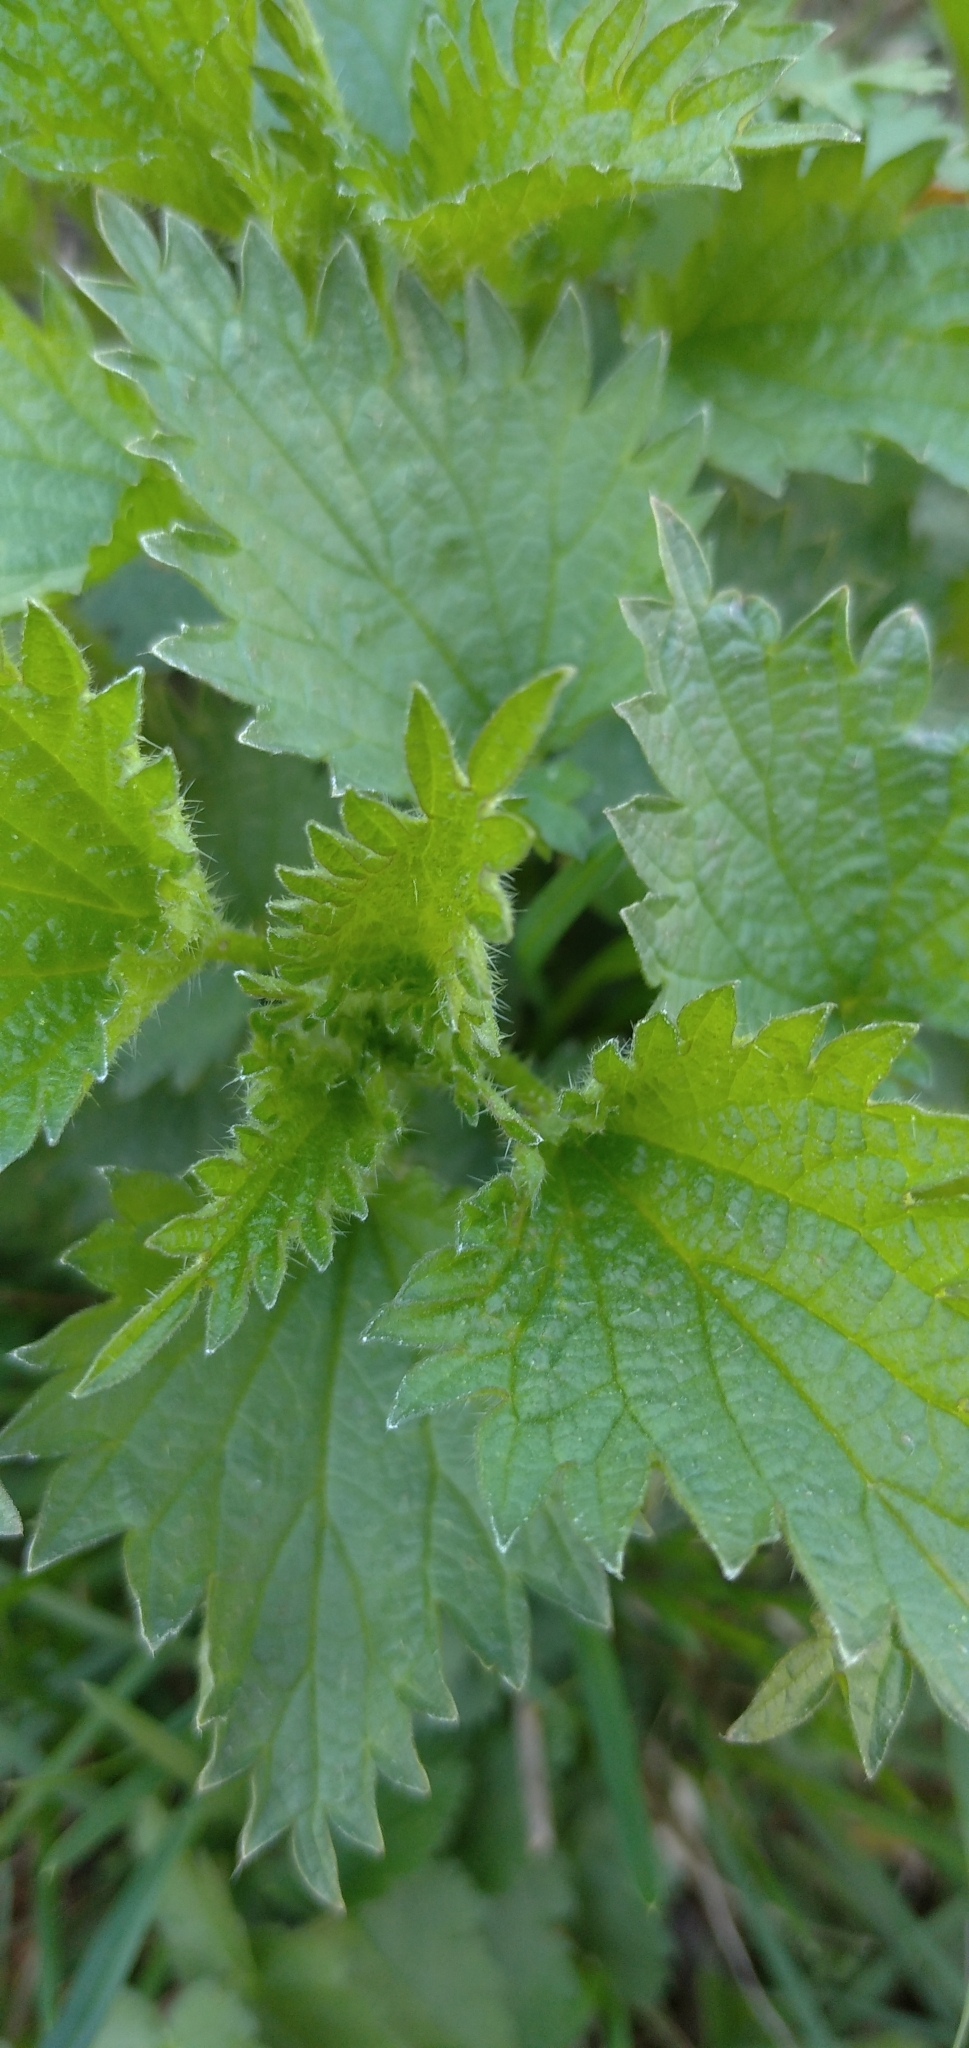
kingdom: Plantae
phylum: Tracheophyta
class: Magnoliopsida
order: Rosales
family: Urticaceae
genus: Urtica
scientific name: Urtica dioica
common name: Common nettle
